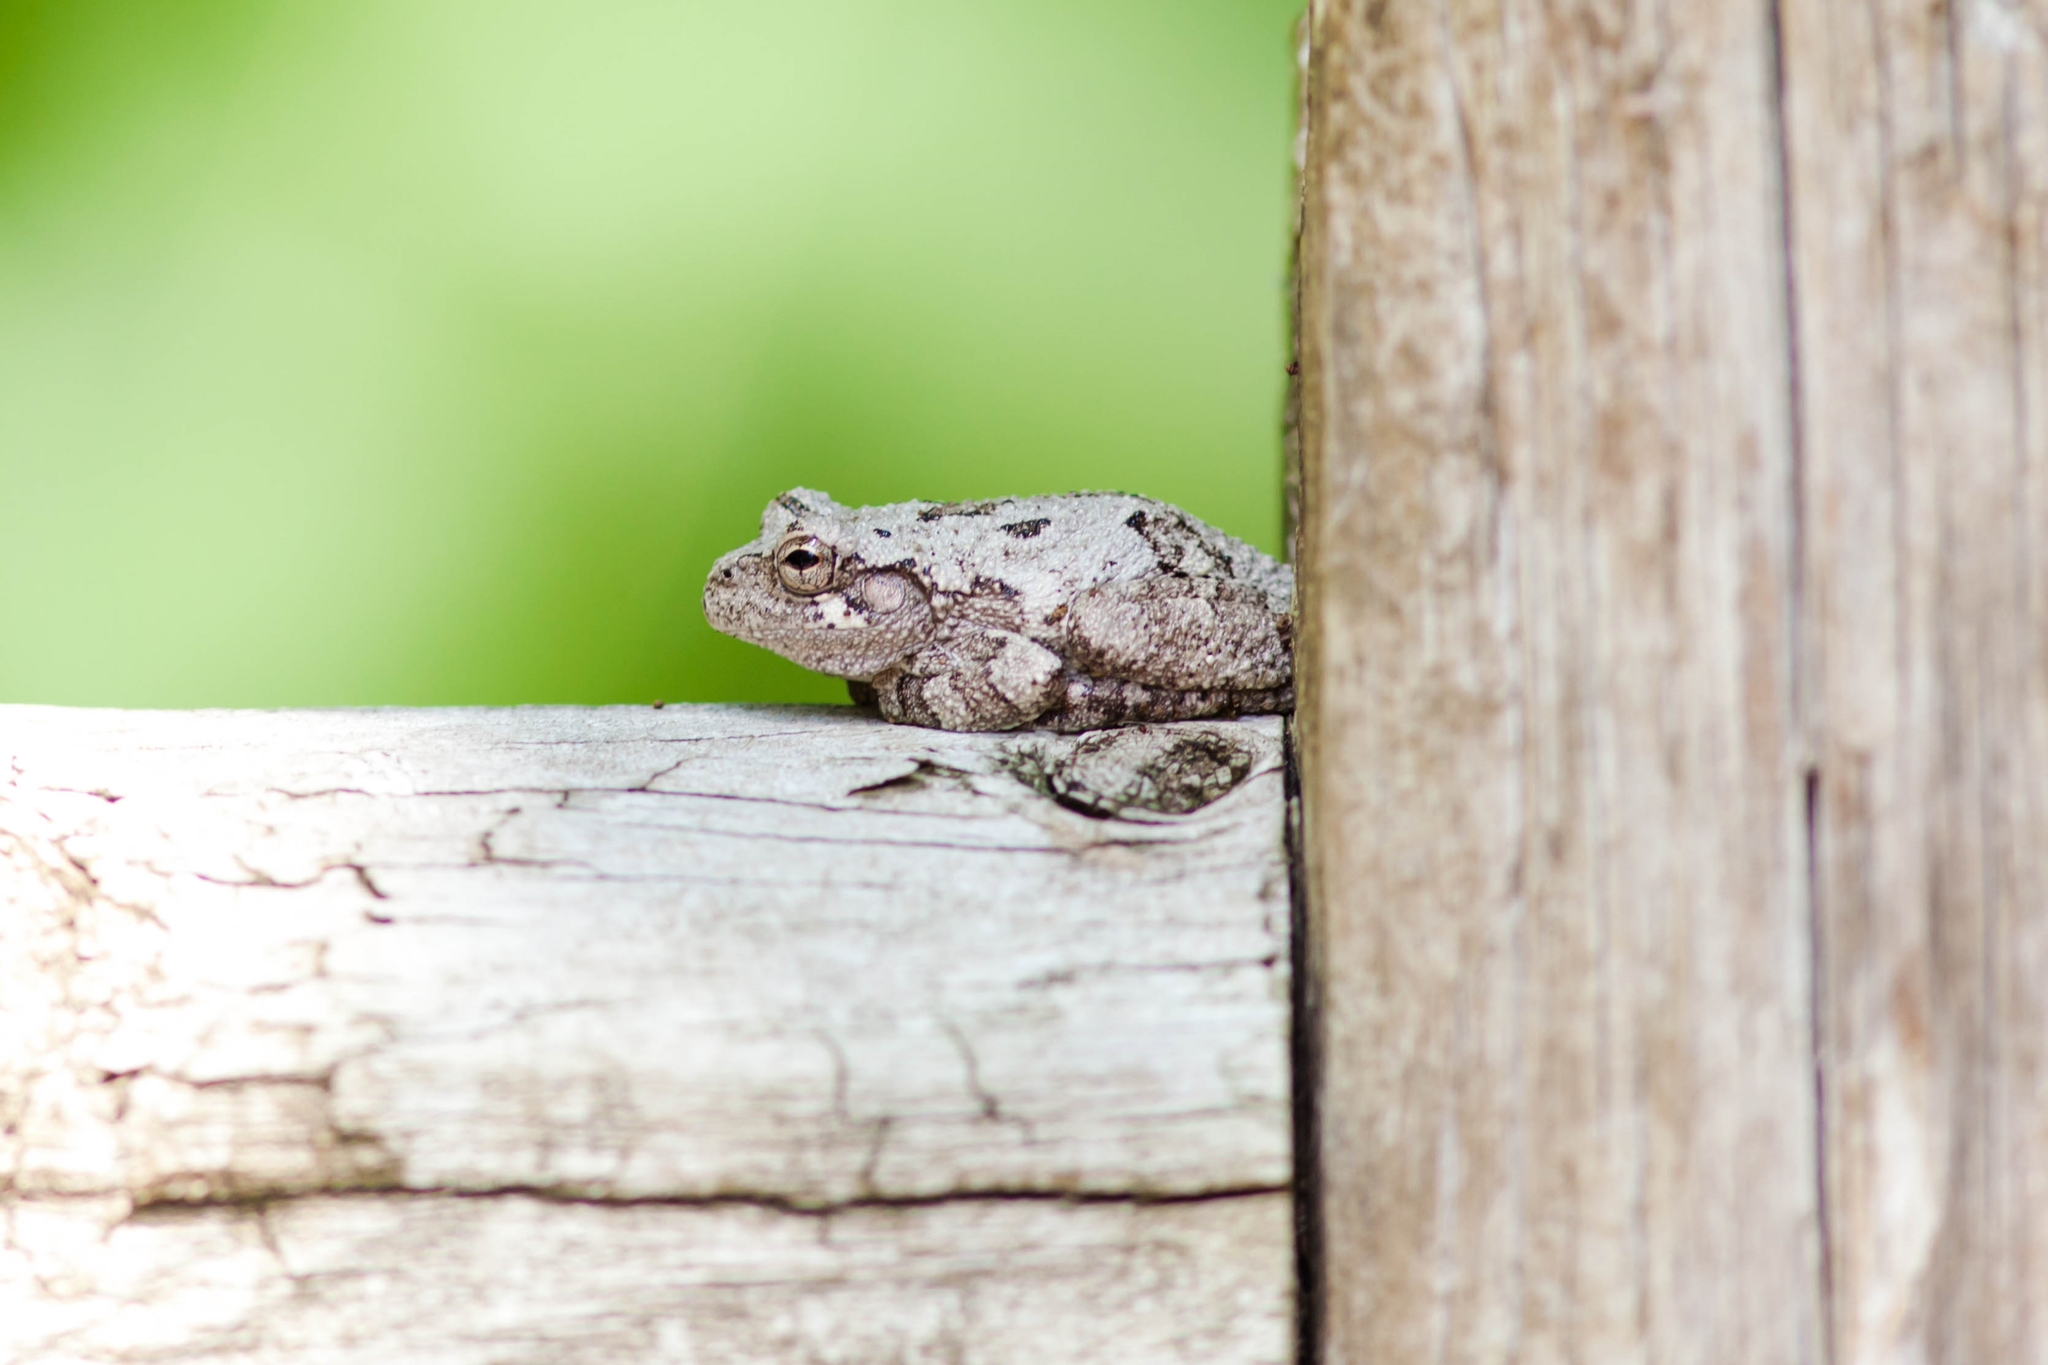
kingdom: Animalia
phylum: Chordata
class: Amphibia
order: Anura
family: Hylidae
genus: Hyla
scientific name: Hyla
